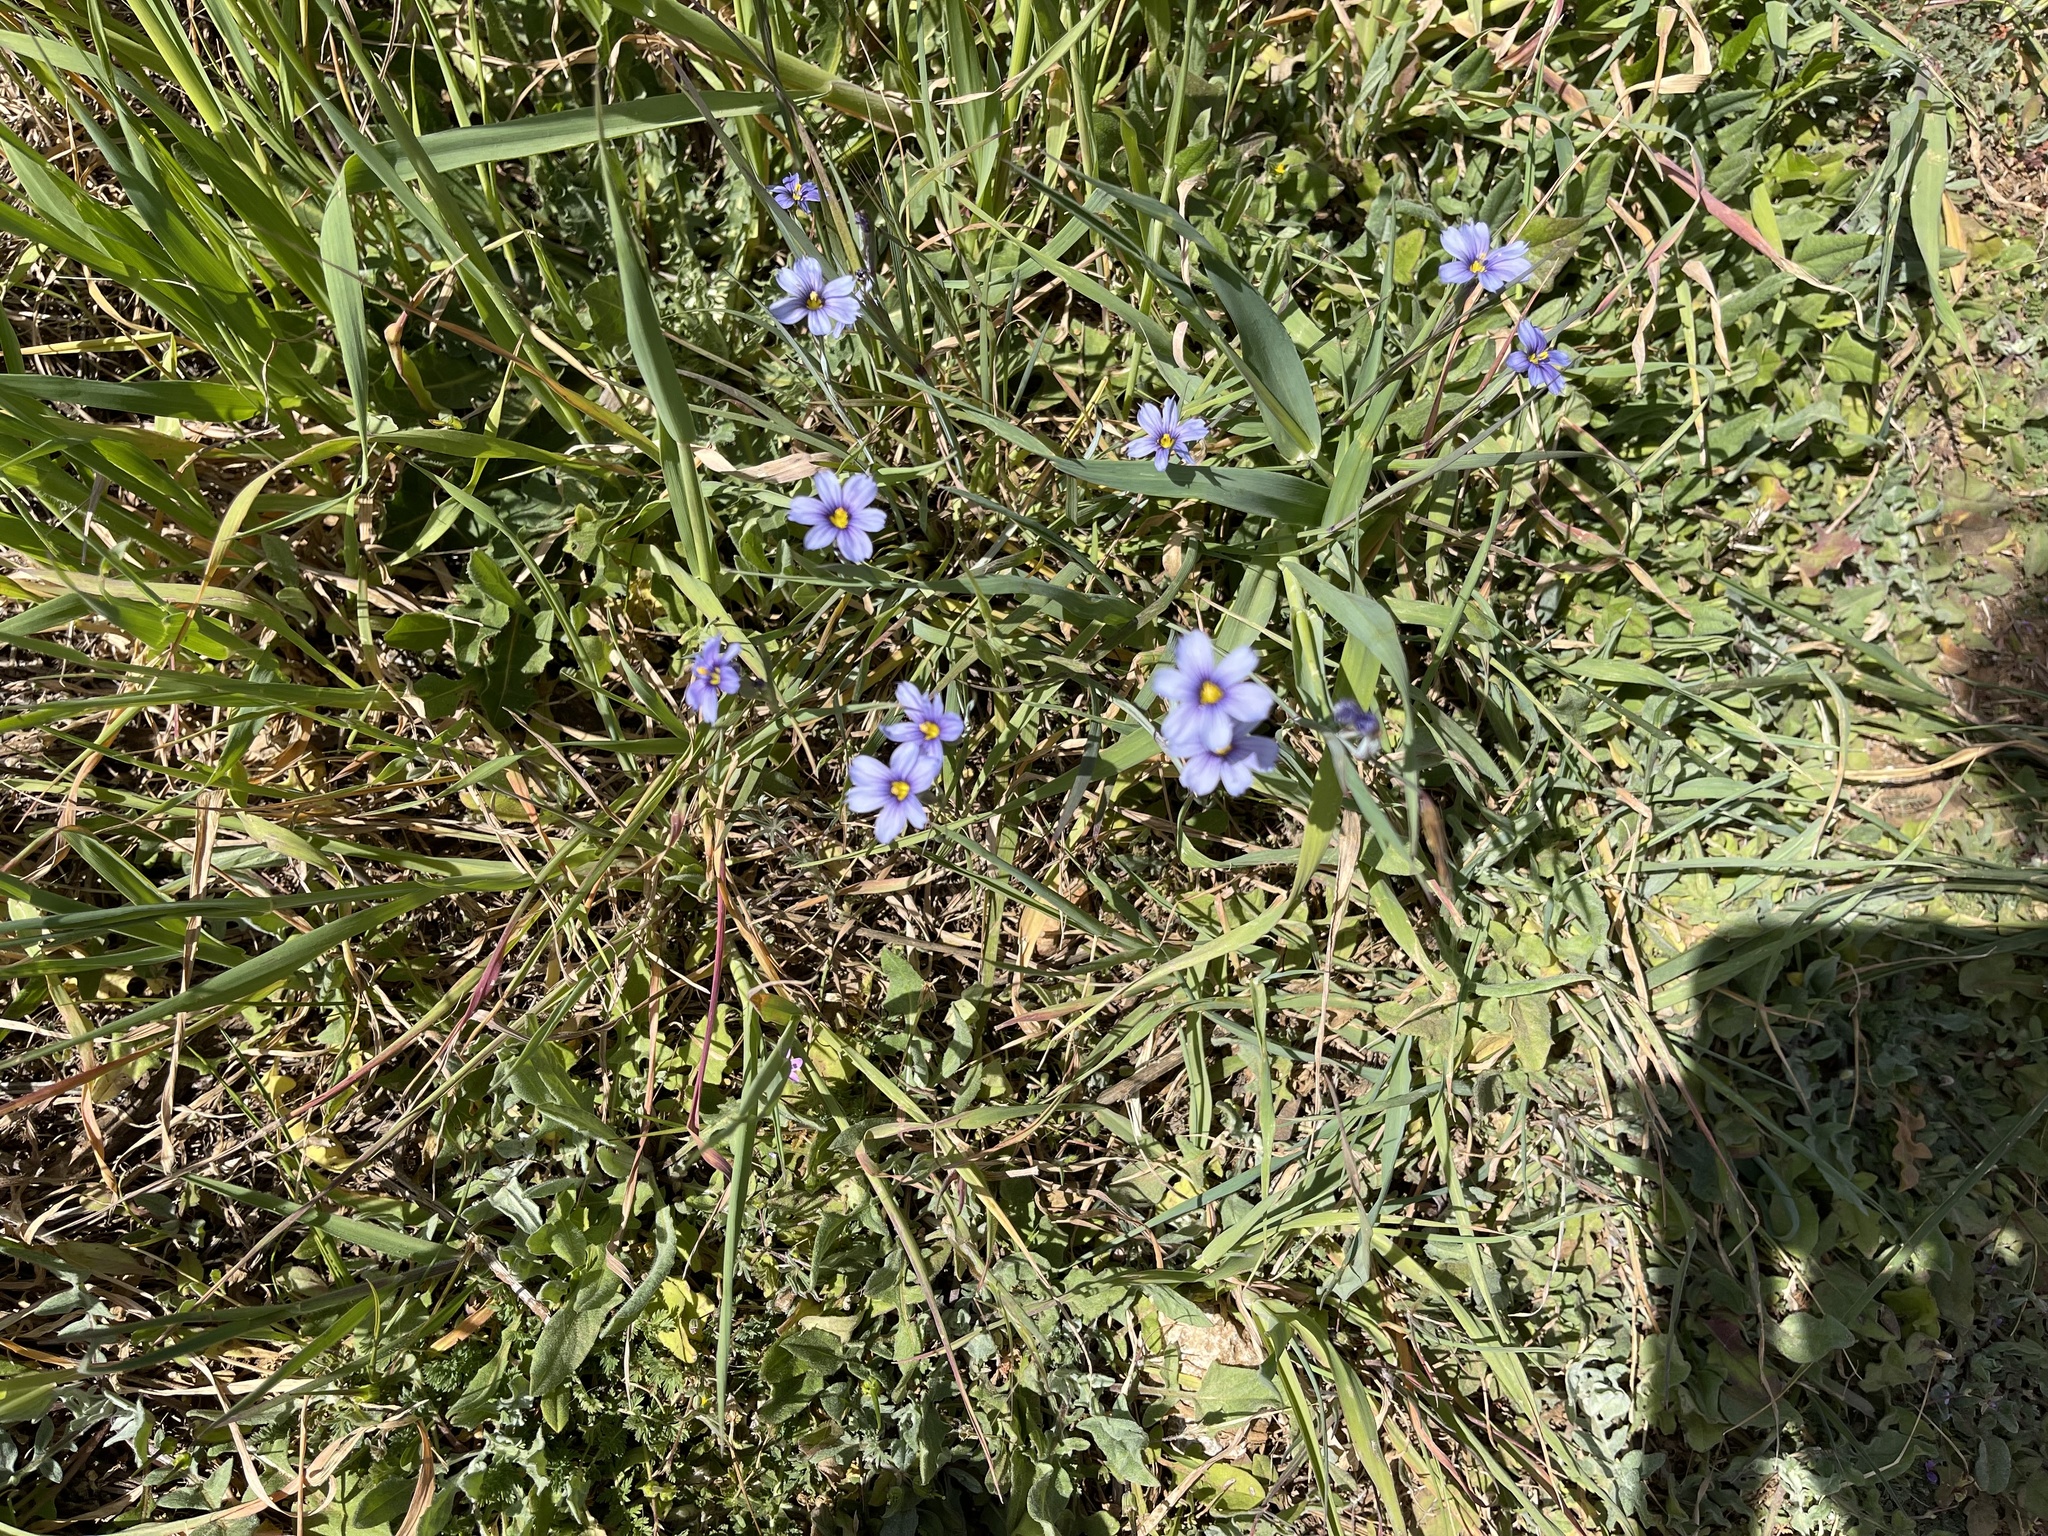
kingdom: Plantae
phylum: Tracheophyta
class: Liliopsida
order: Asparagales
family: Iridaceae
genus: Sisyrinchium
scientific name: Sisyrinchium bellum
